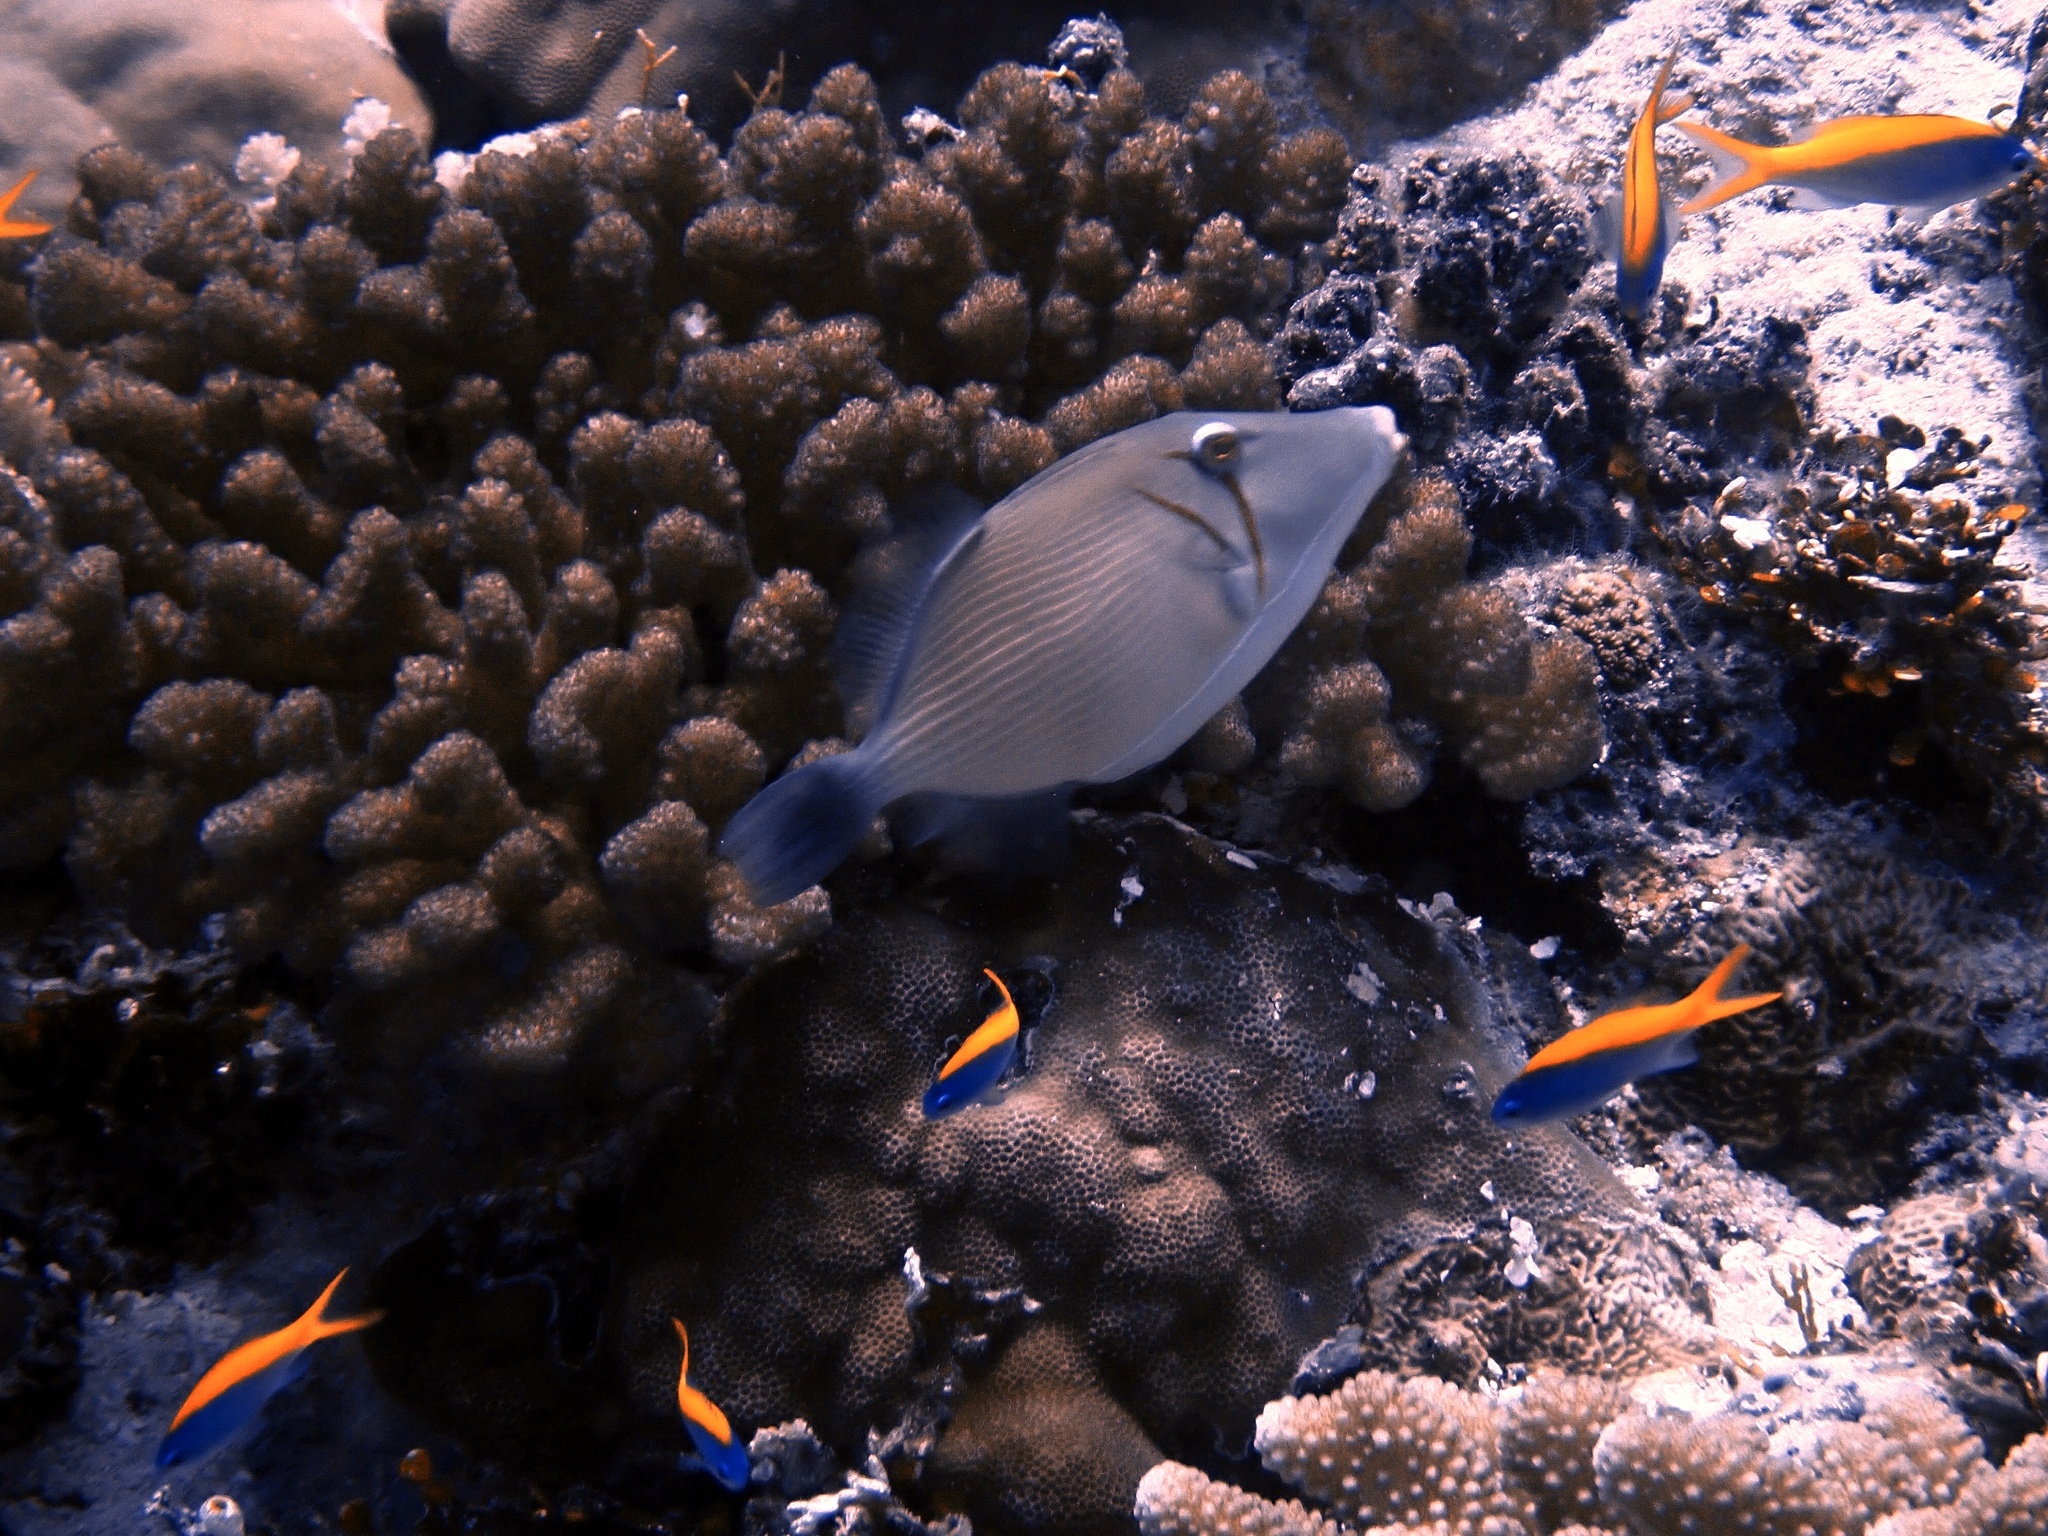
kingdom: Animalia
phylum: Chordata
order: Tetraodontiformes
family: Balistidae
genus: Sufflamen
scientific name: Sufflamen bursa
